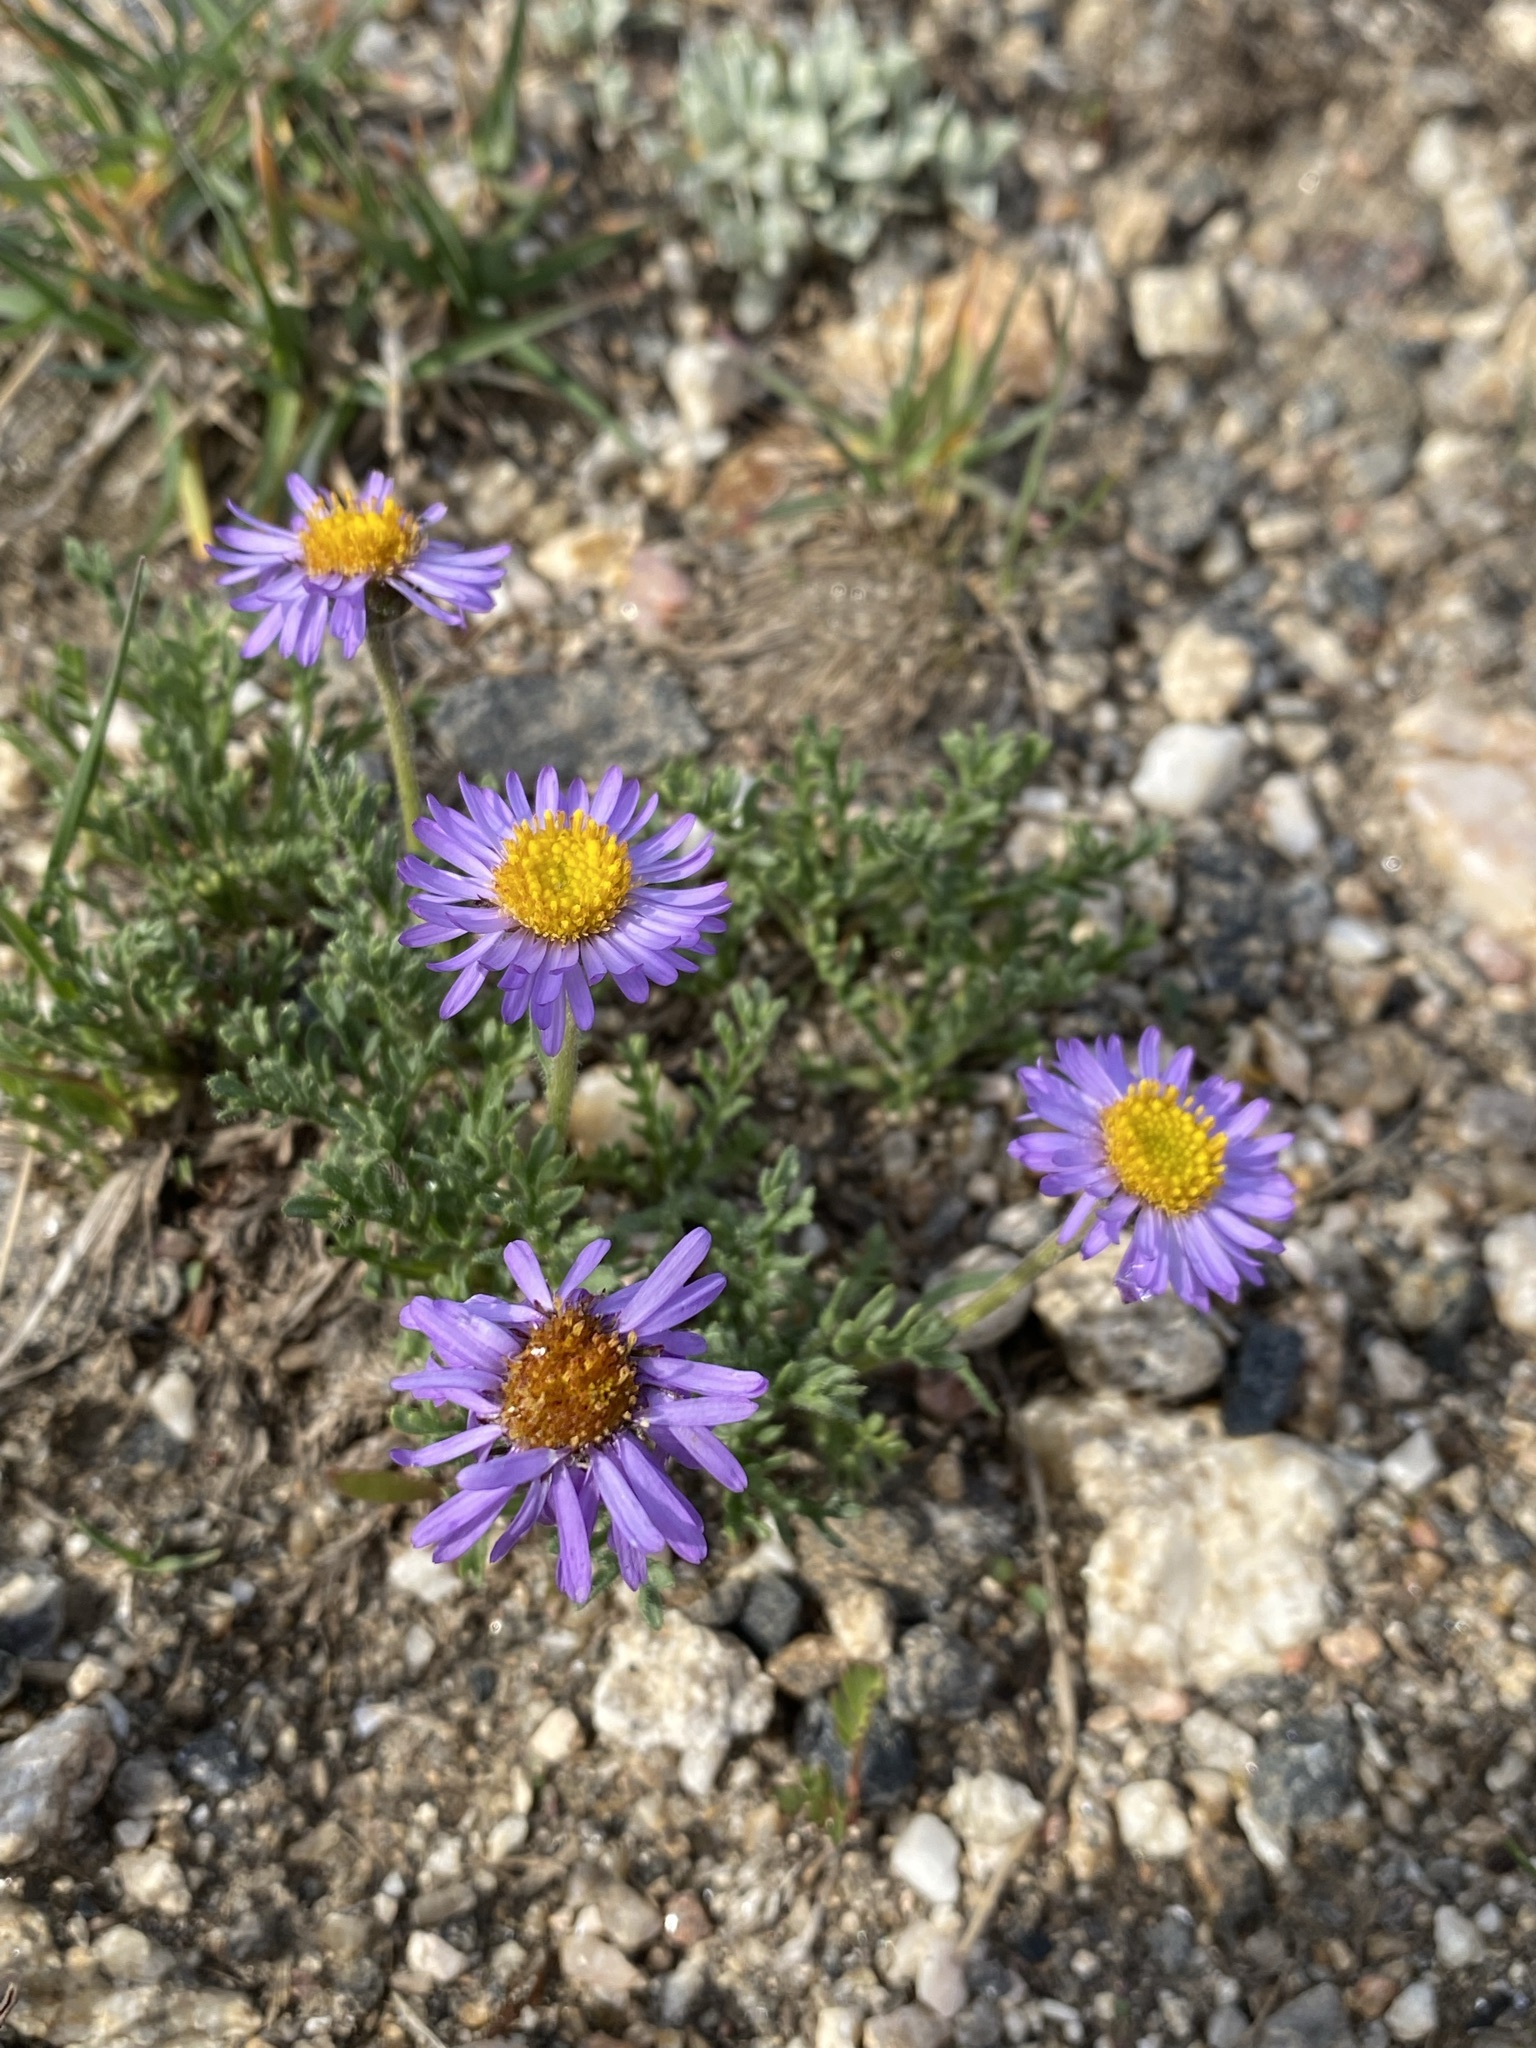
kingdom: Plantae
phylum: Tracheophyta
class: Magnoliopsida
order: Asterales
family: Asteraceae
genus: Erigeron
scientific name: Erigeron pinnatisectus
